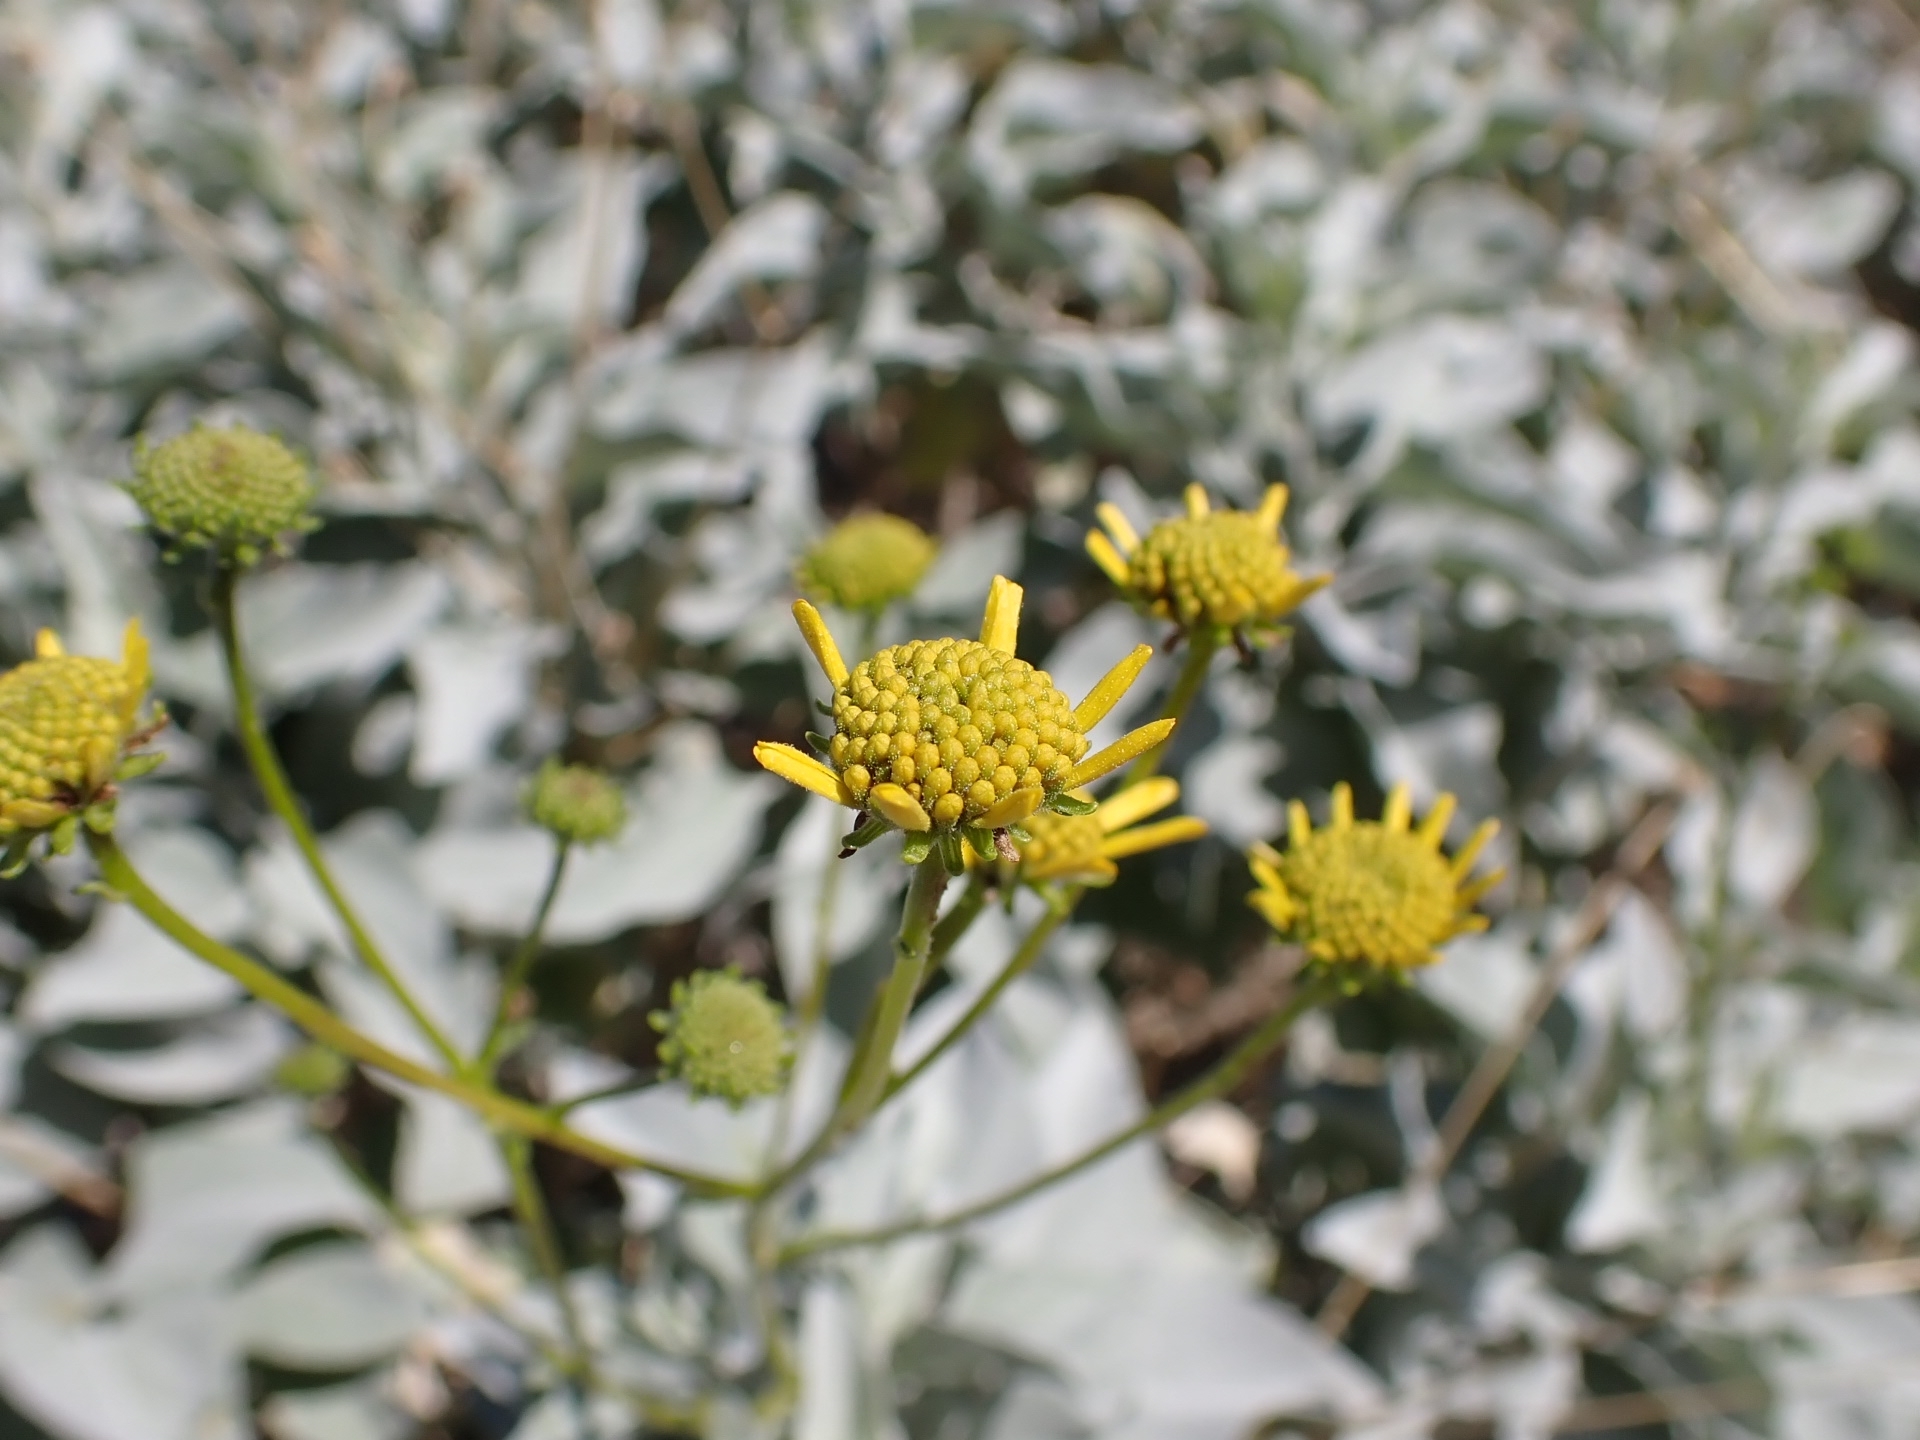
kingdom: Plantae
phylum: Tracheophyta
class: Magnoliopsida
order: Asterales
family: Asteraceae
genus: Encelia
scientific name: Encelia farinosa
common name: Brittlebush
